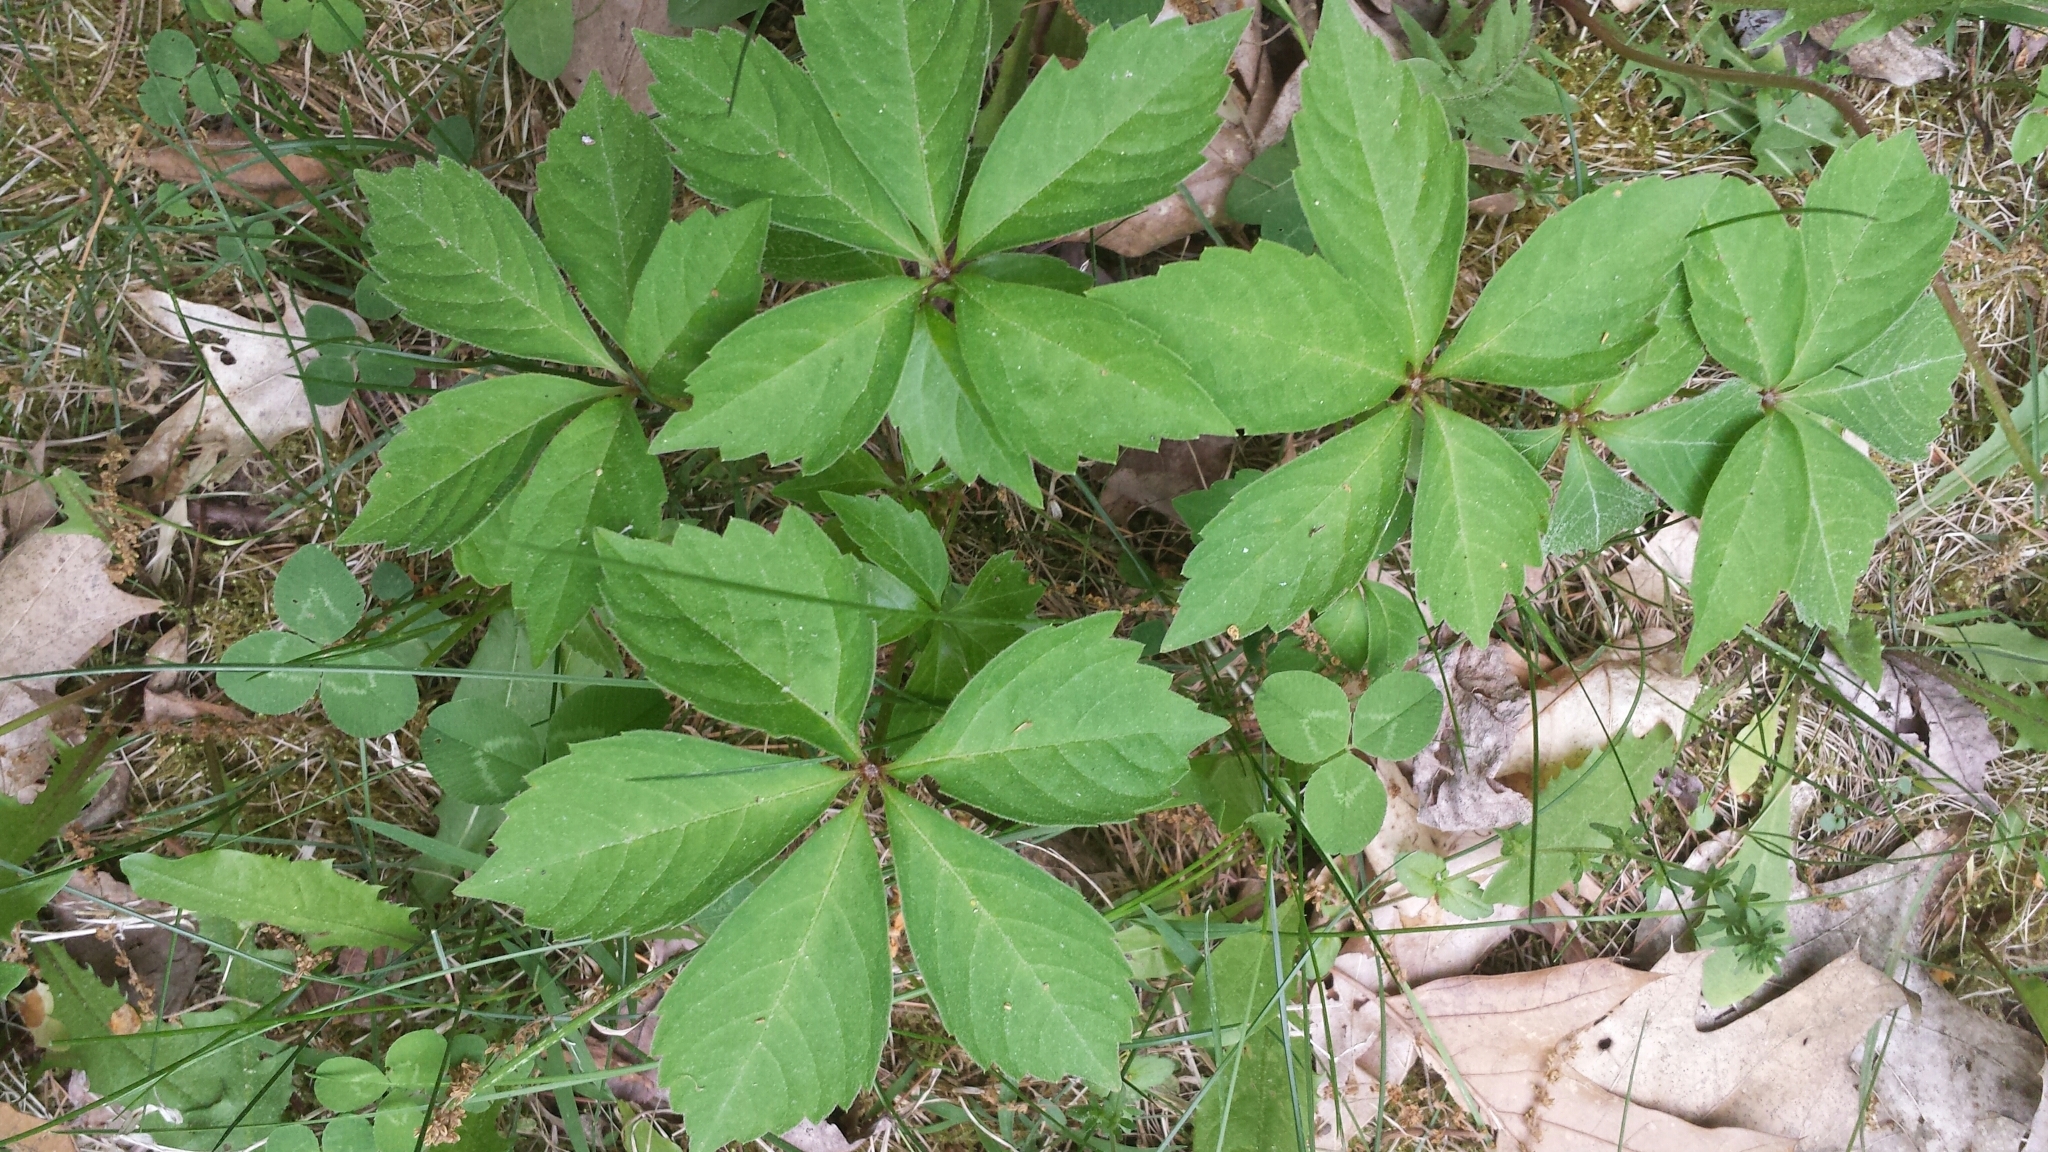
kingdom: Plantae
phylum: Tracheophyta
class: Magnoliopsida
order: Vitales
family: Vitaceae
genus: Parthenocissus
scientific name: Parthenocissus quinquefolia
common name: Virginia-creeper
